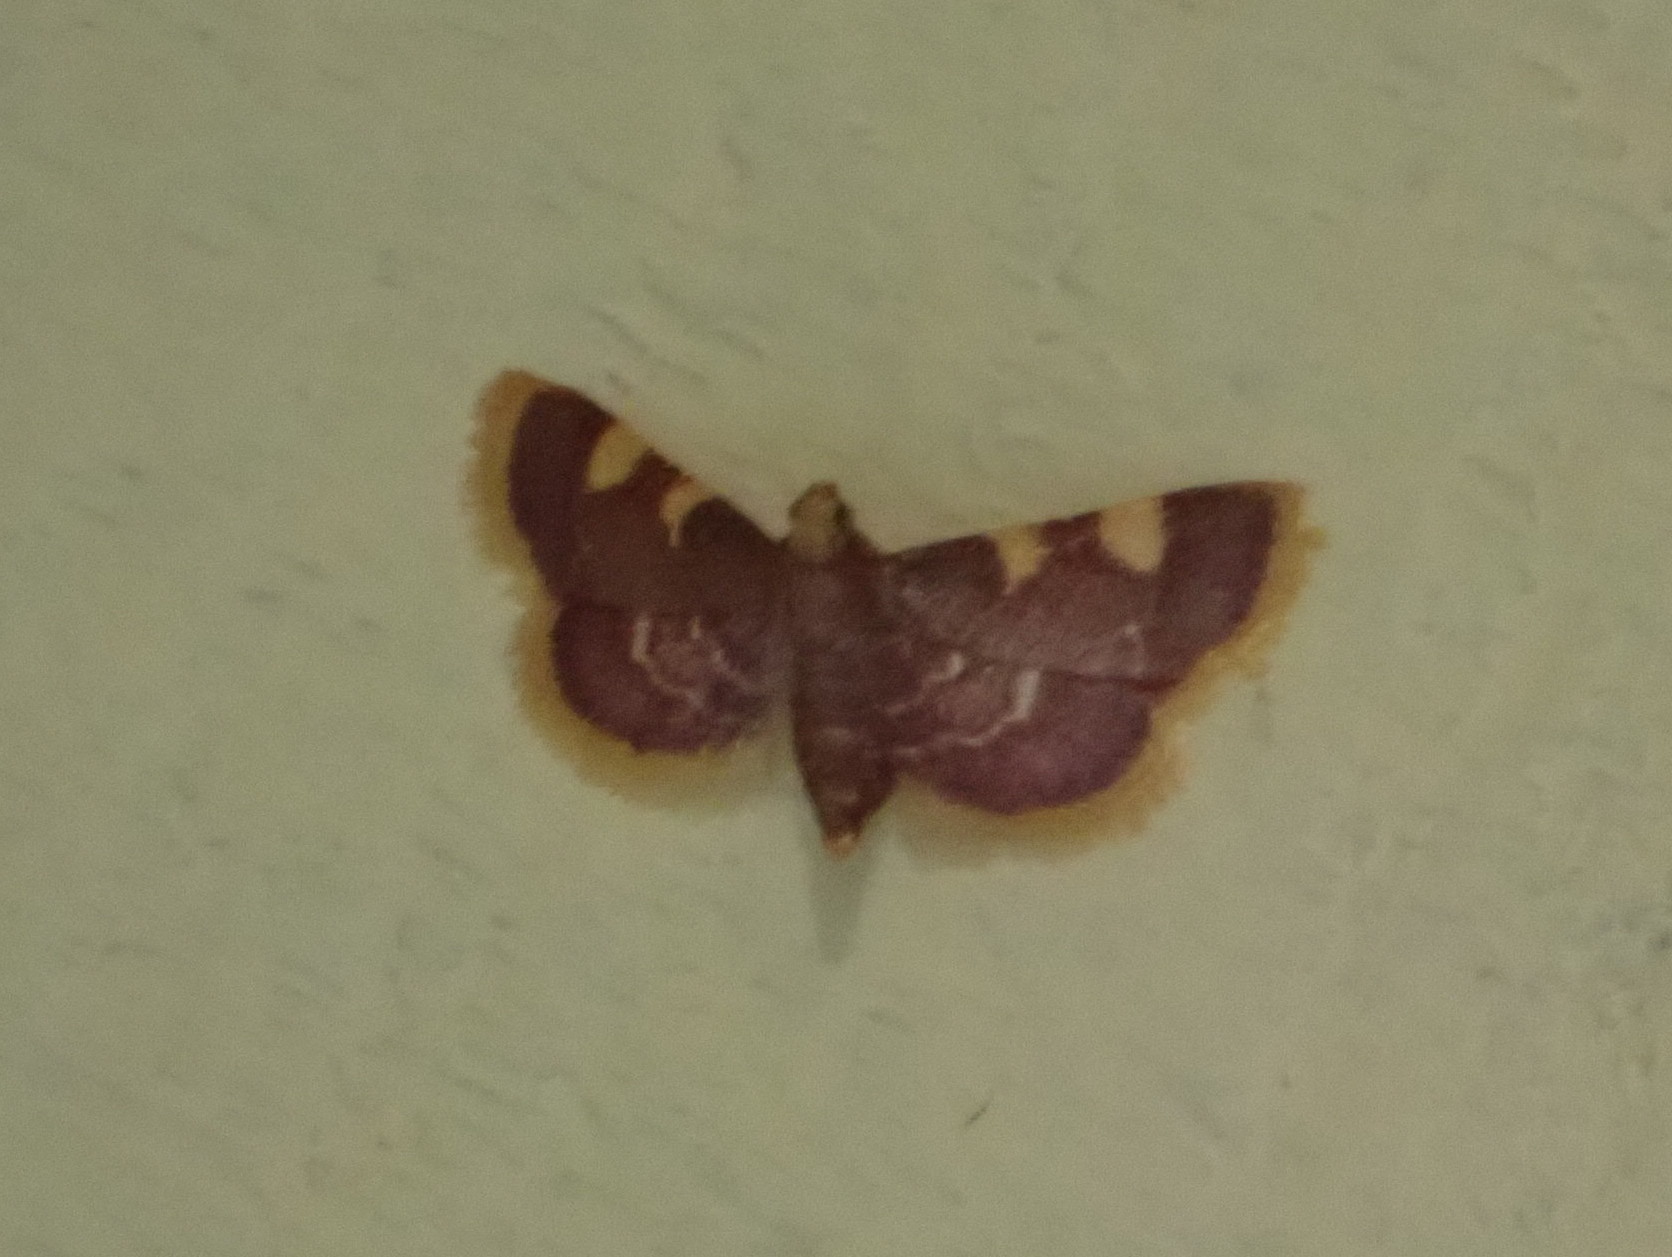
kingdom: Animalia
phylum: Arthropoda
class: Insecta
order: Lepidoptera
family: Pyralidae
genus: Hypsopygia
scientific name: Hypsopygia costalis
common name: Gold triangle
